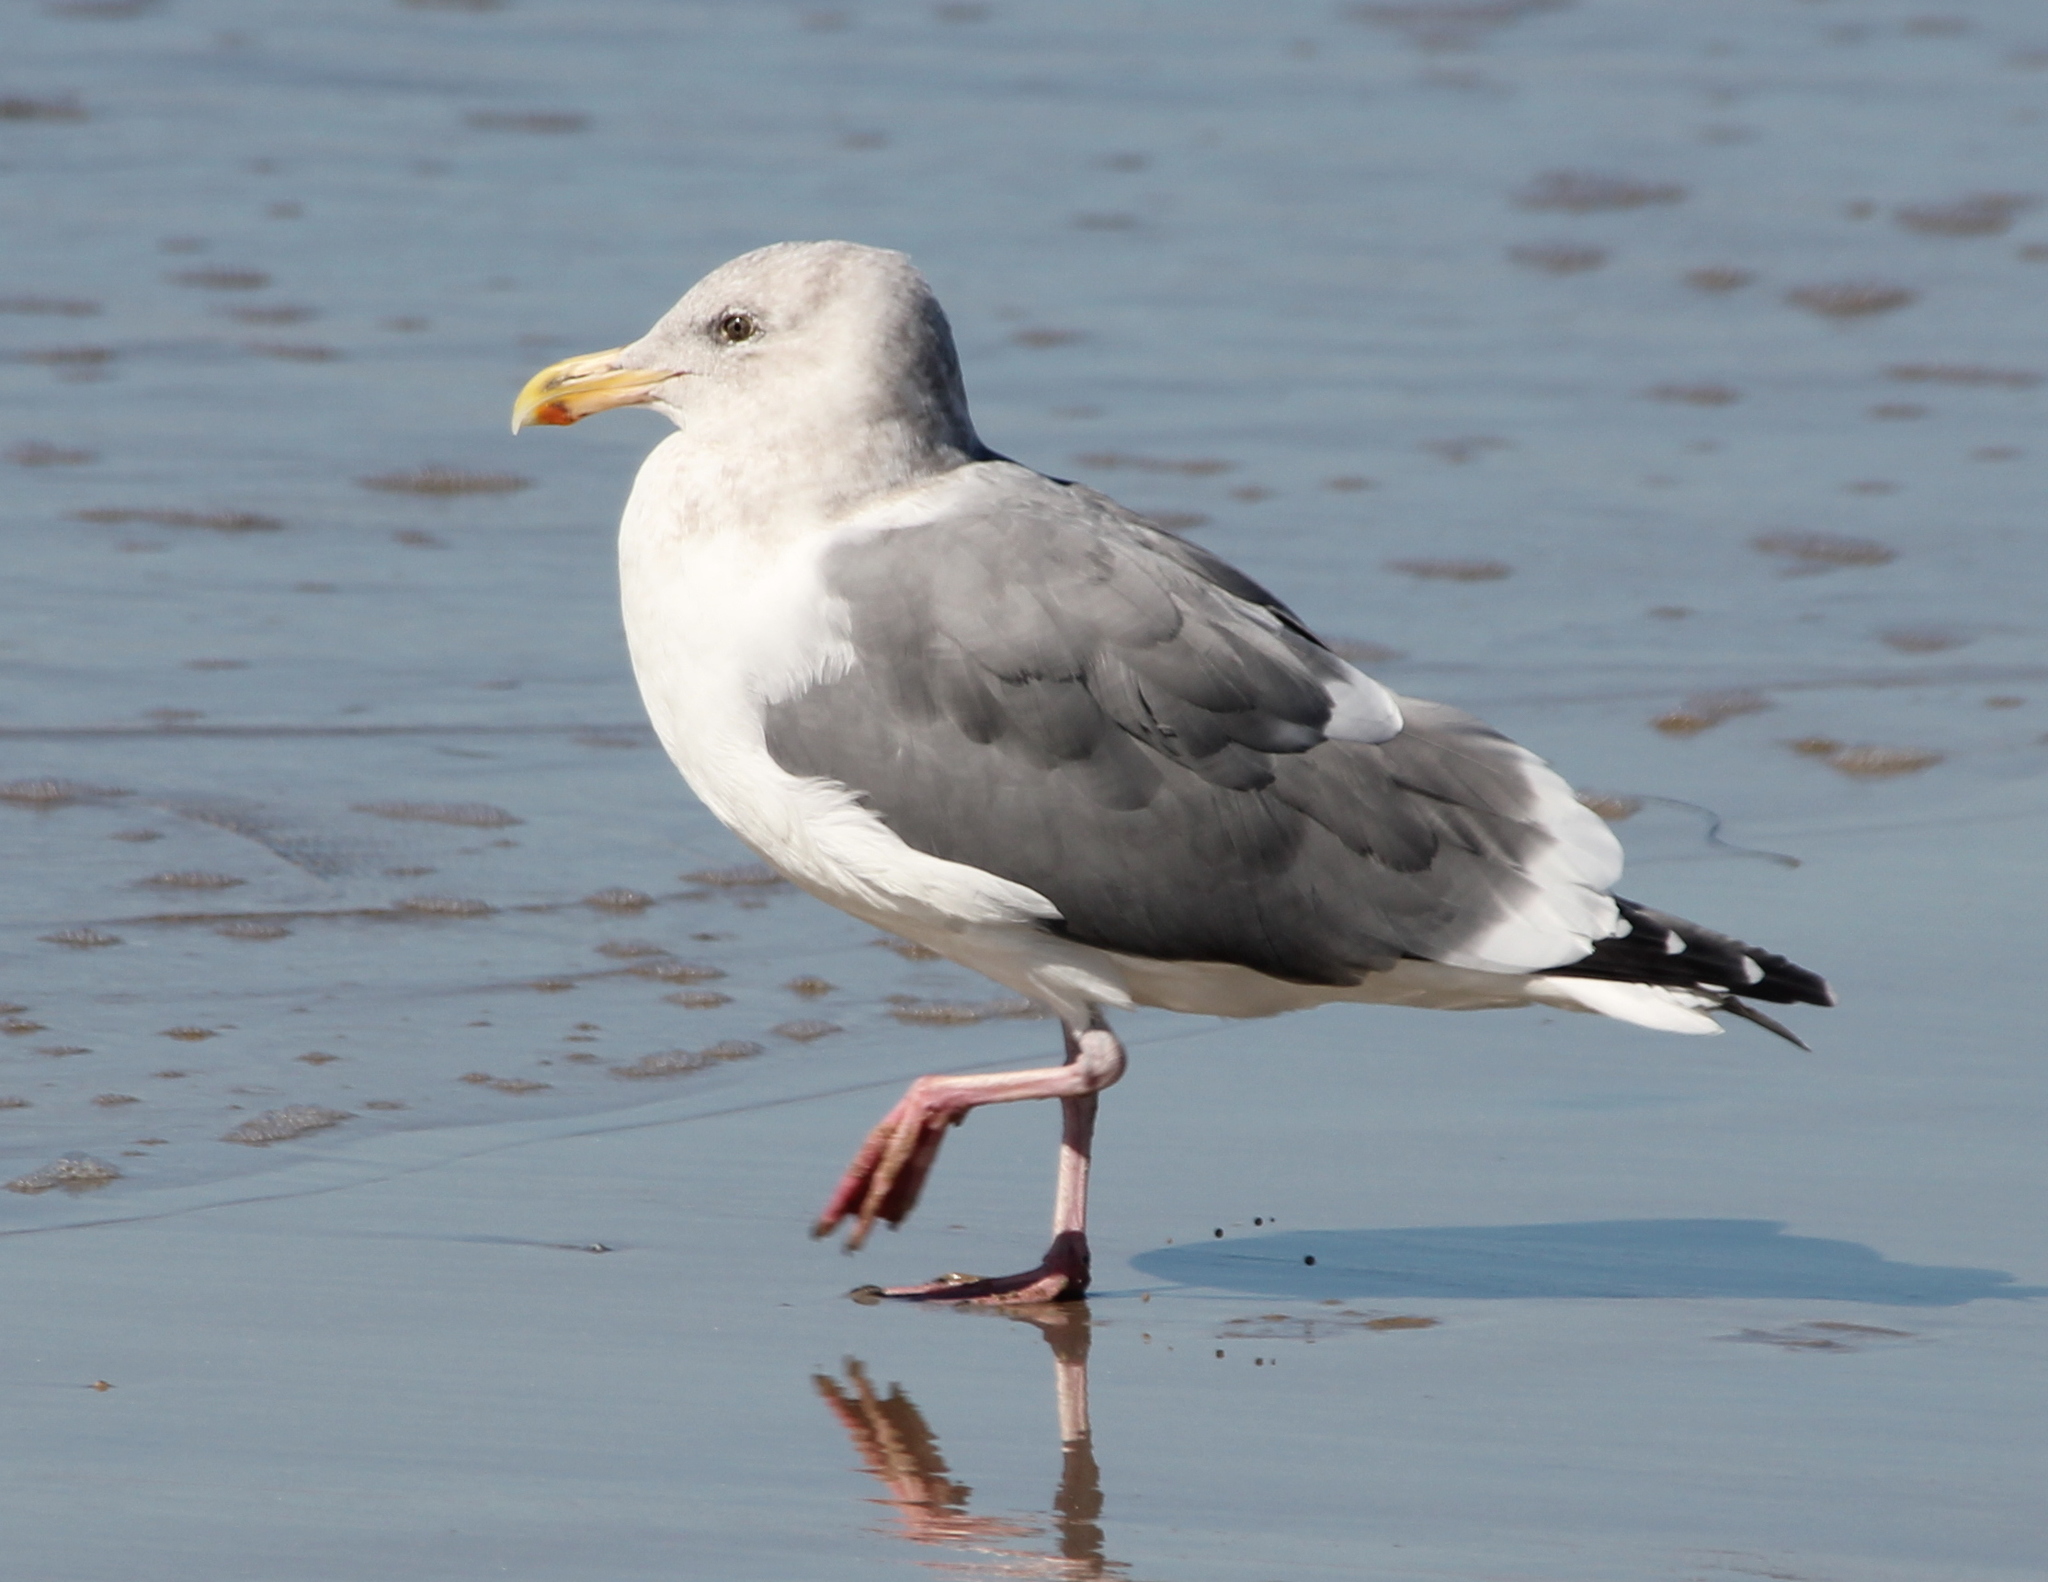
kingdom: Animalia
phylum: Chordata
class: Aves
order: Charadriiformes
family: Laridae
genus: Larus
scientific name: Larus occidentalis
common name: Western gull
